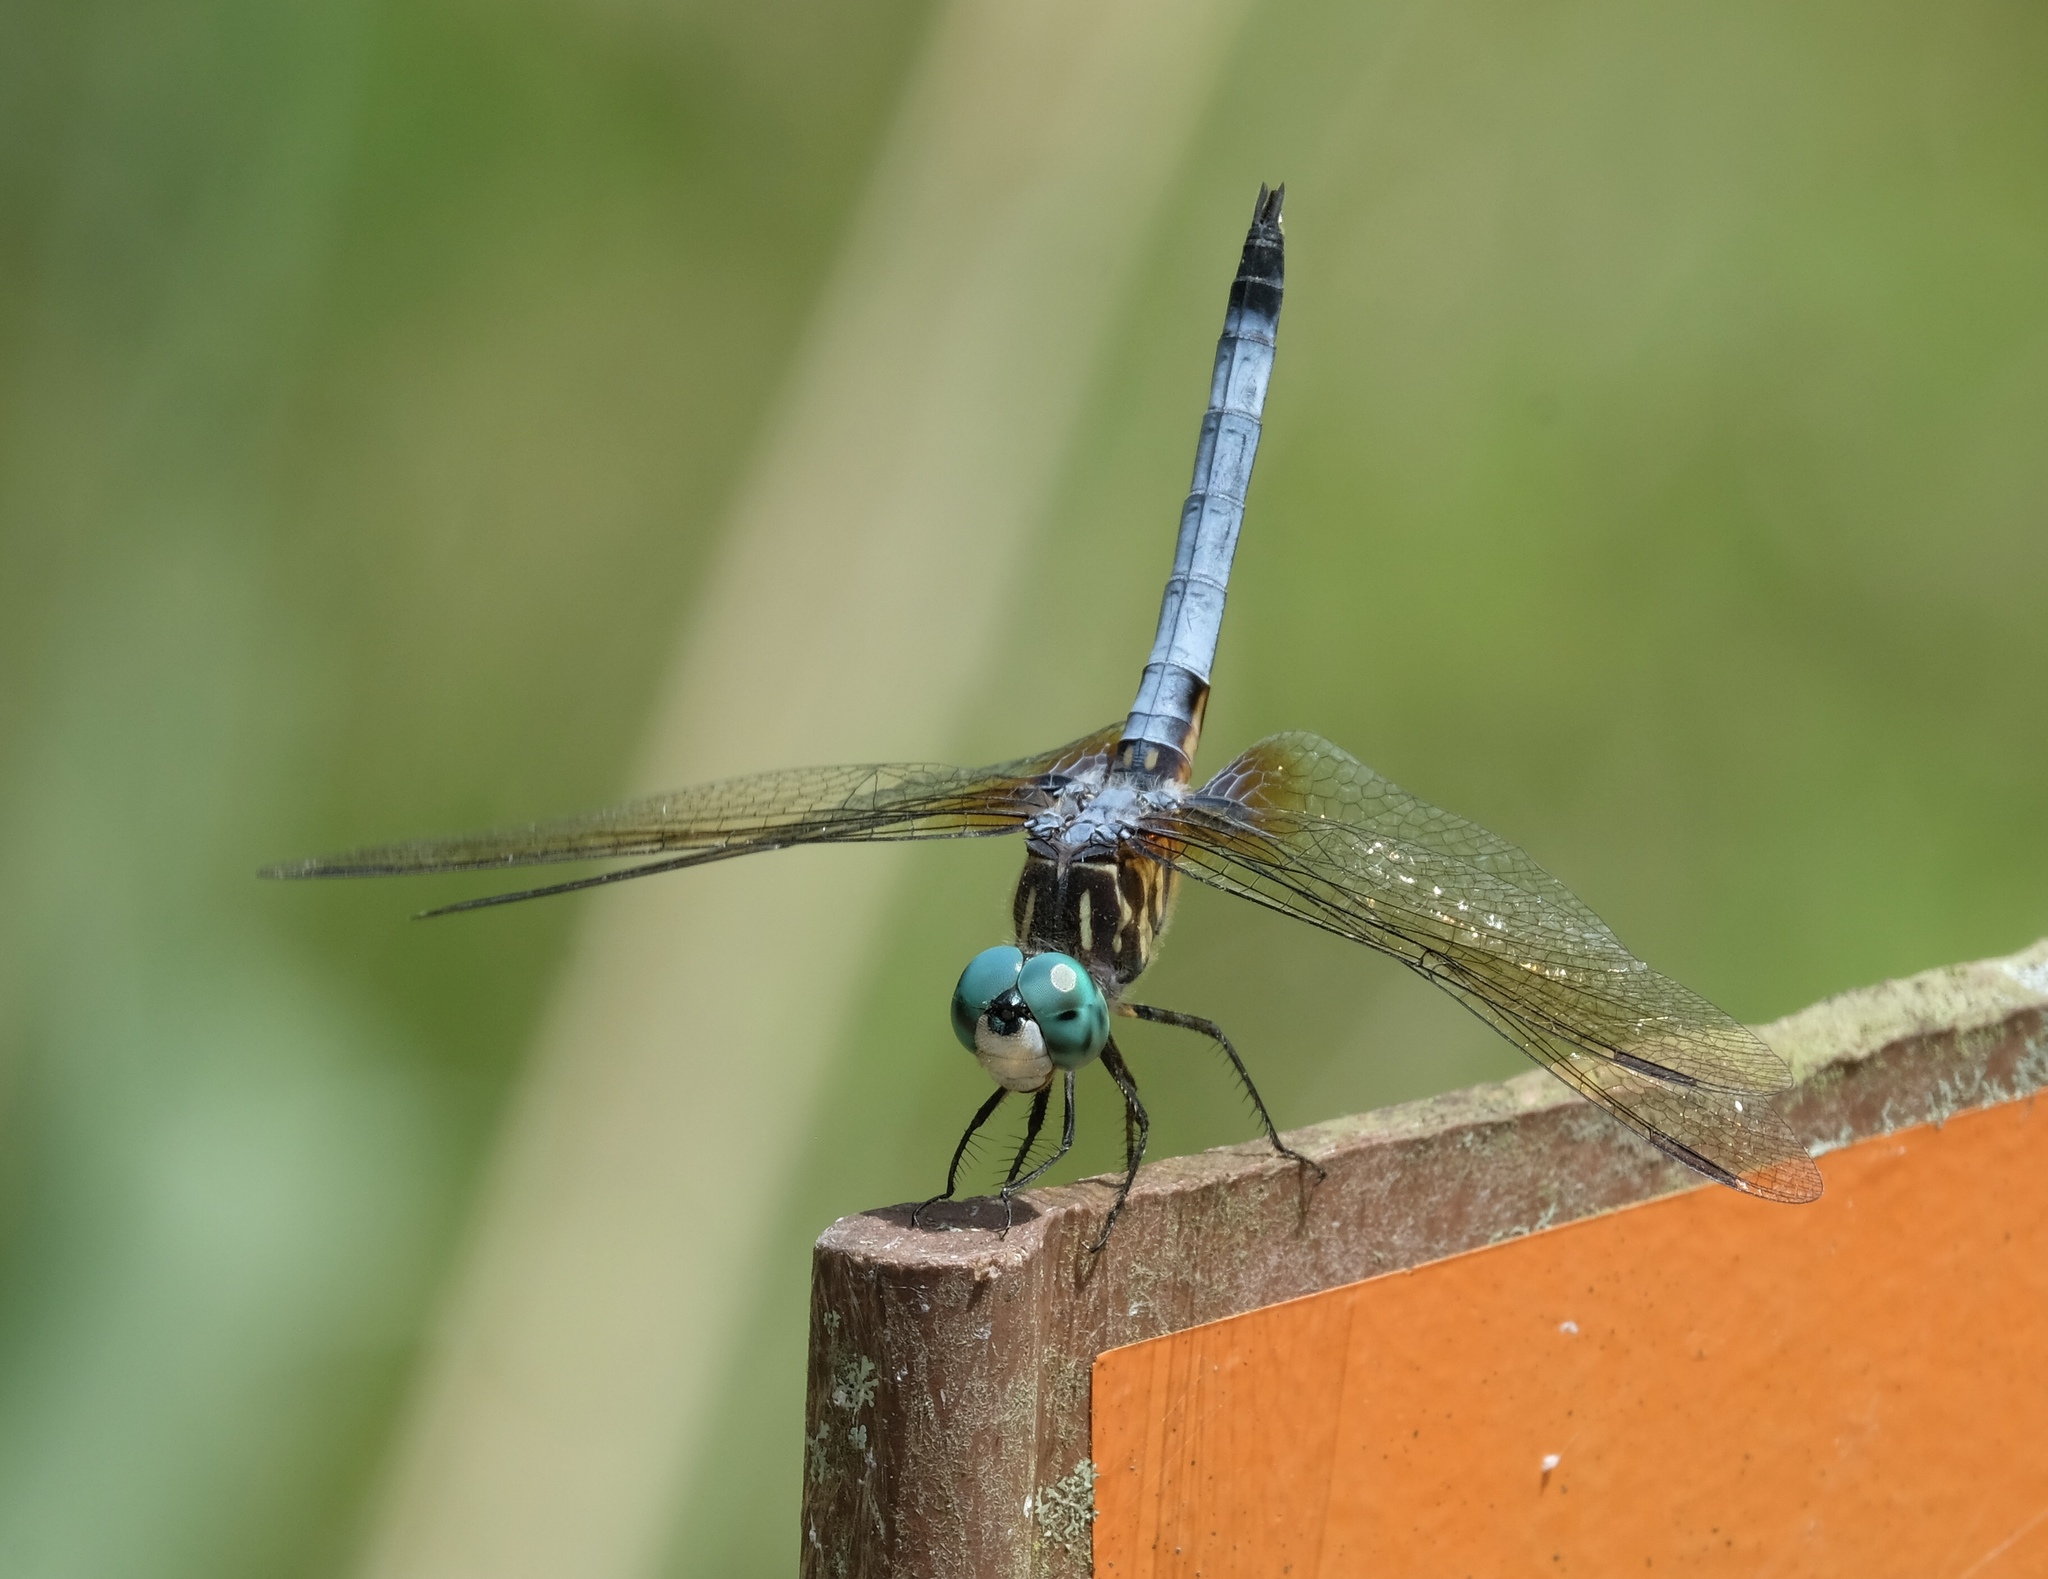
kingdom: Animalia
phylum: Arthropoda
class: Insecta
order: Odonata
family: Libellulidae
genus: Pachydiplax
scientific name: Pachydiplax longipennis
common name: Blue dasher
